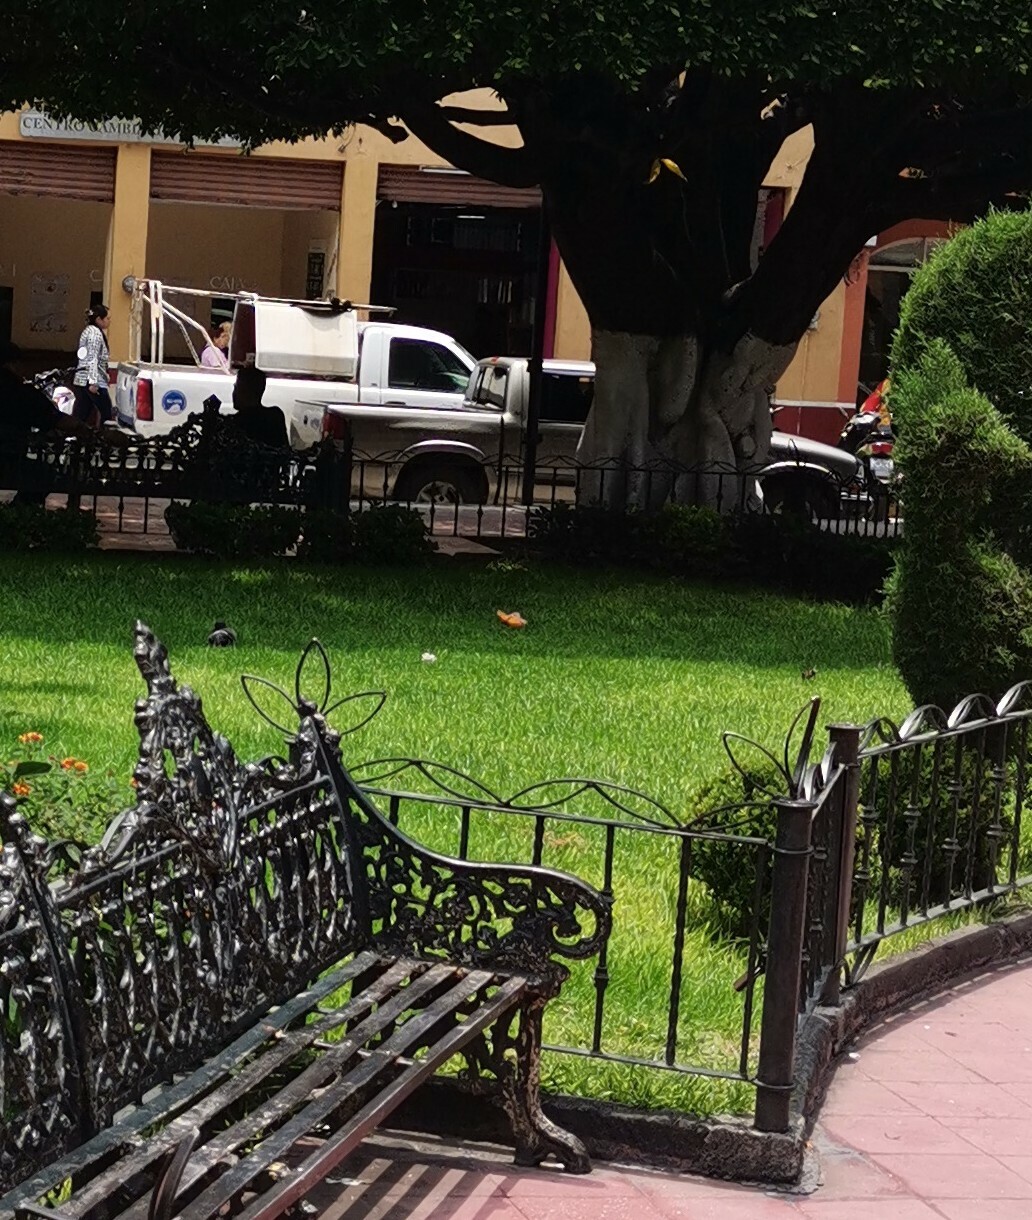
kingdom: Animalia
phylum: Arthropoda
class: Insecta
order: Lepidoptera
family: Nymphalidae
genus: Danaus
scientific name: Danaus plexippus
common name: Monarch
